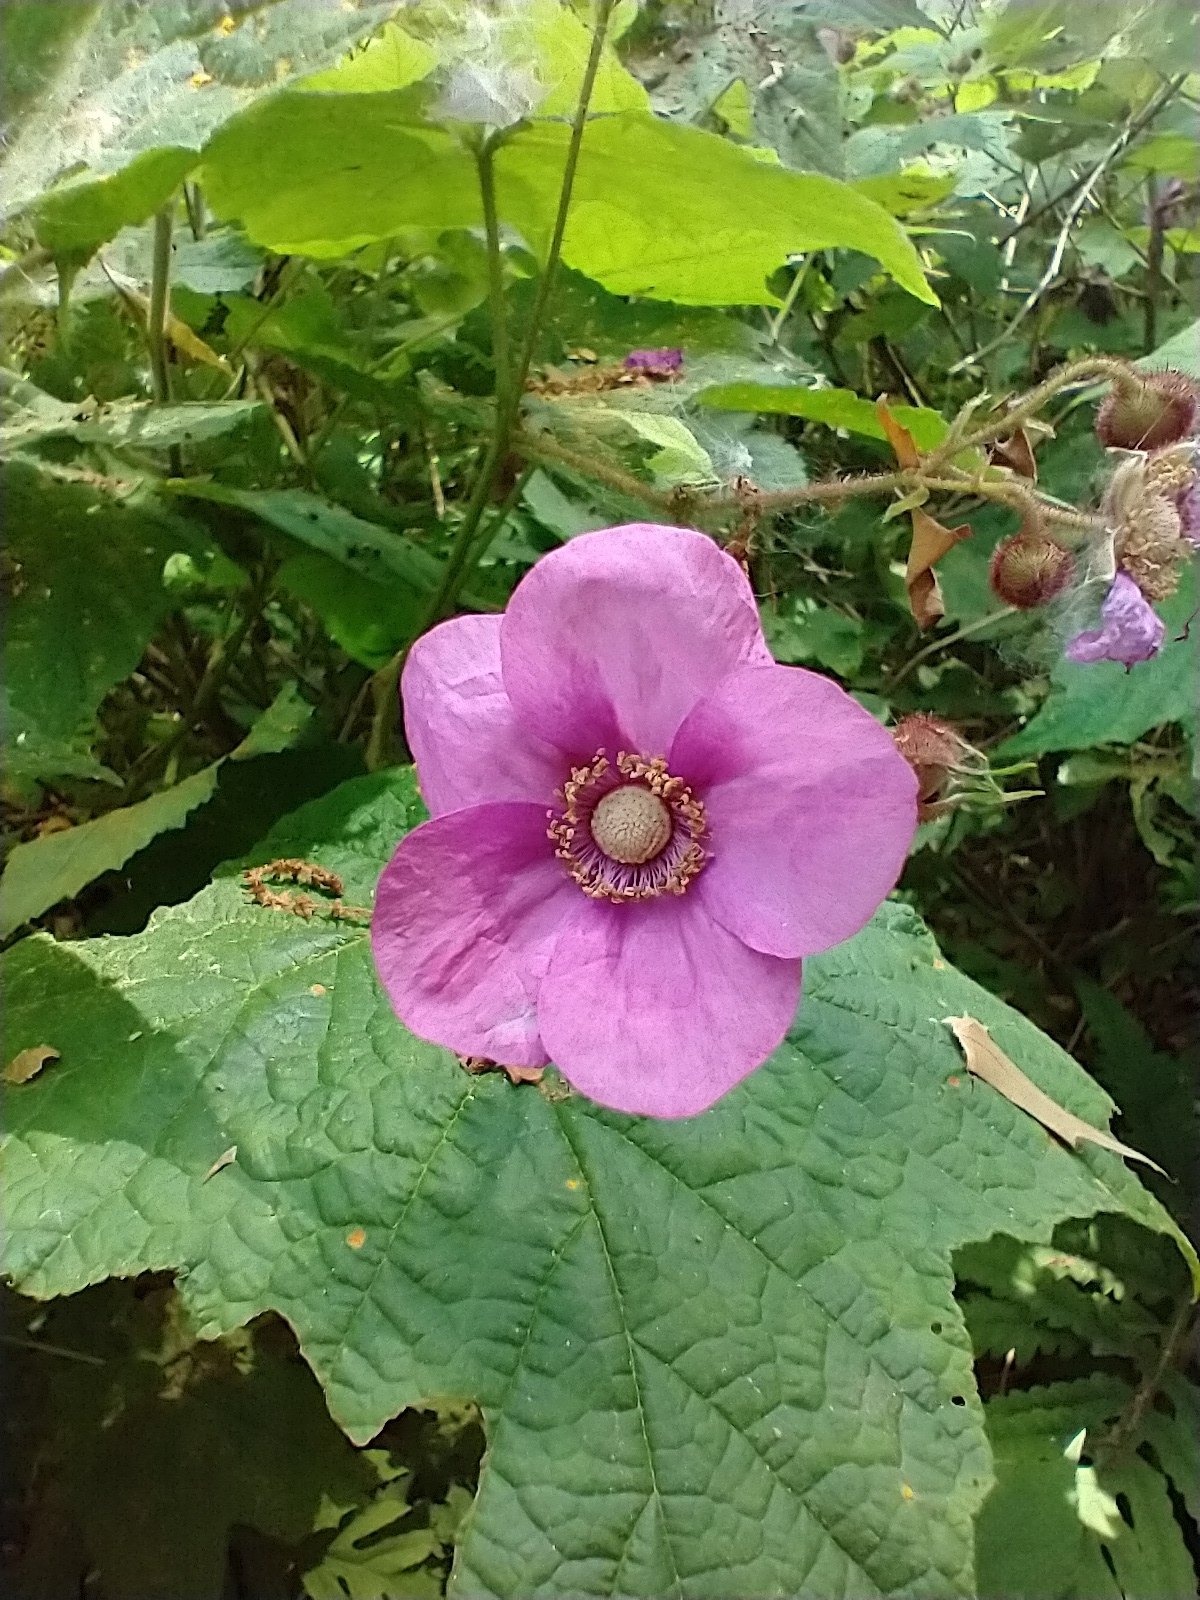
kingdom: Plantae
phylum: Tracheophyta
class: Magnoliopsida
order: Rosales
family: Rosaceae
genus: Rubus
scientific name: Rubus odoratus
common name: Purple-flowered raspberry
